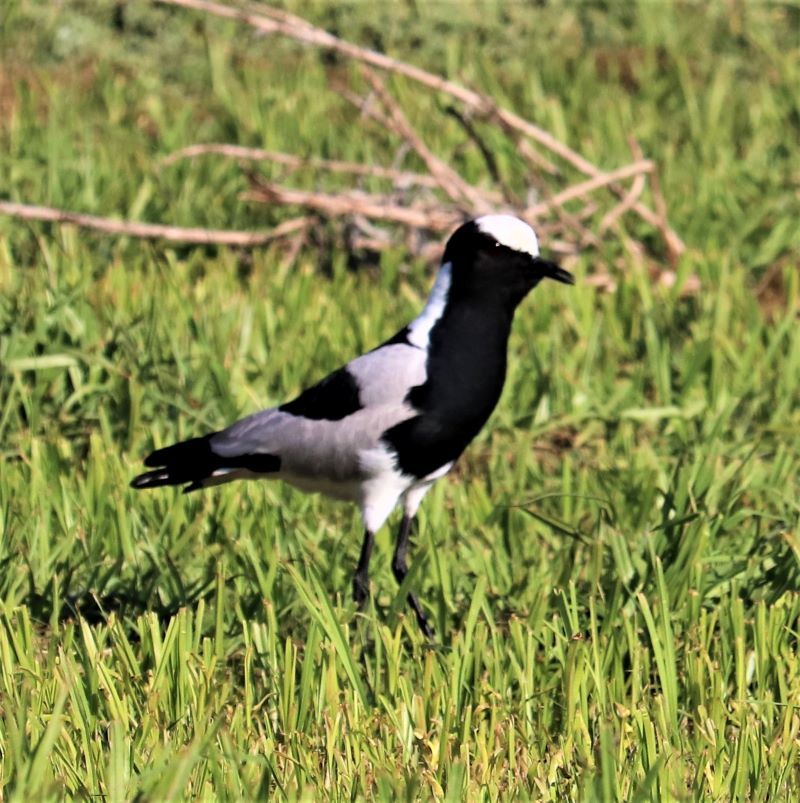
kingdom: Animalia
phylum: Chordata
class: Aves
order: Charadriiformes
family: Charadriidae
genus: Vanellus
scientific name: Vanellus armatus
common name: Blacksmith lapwing
